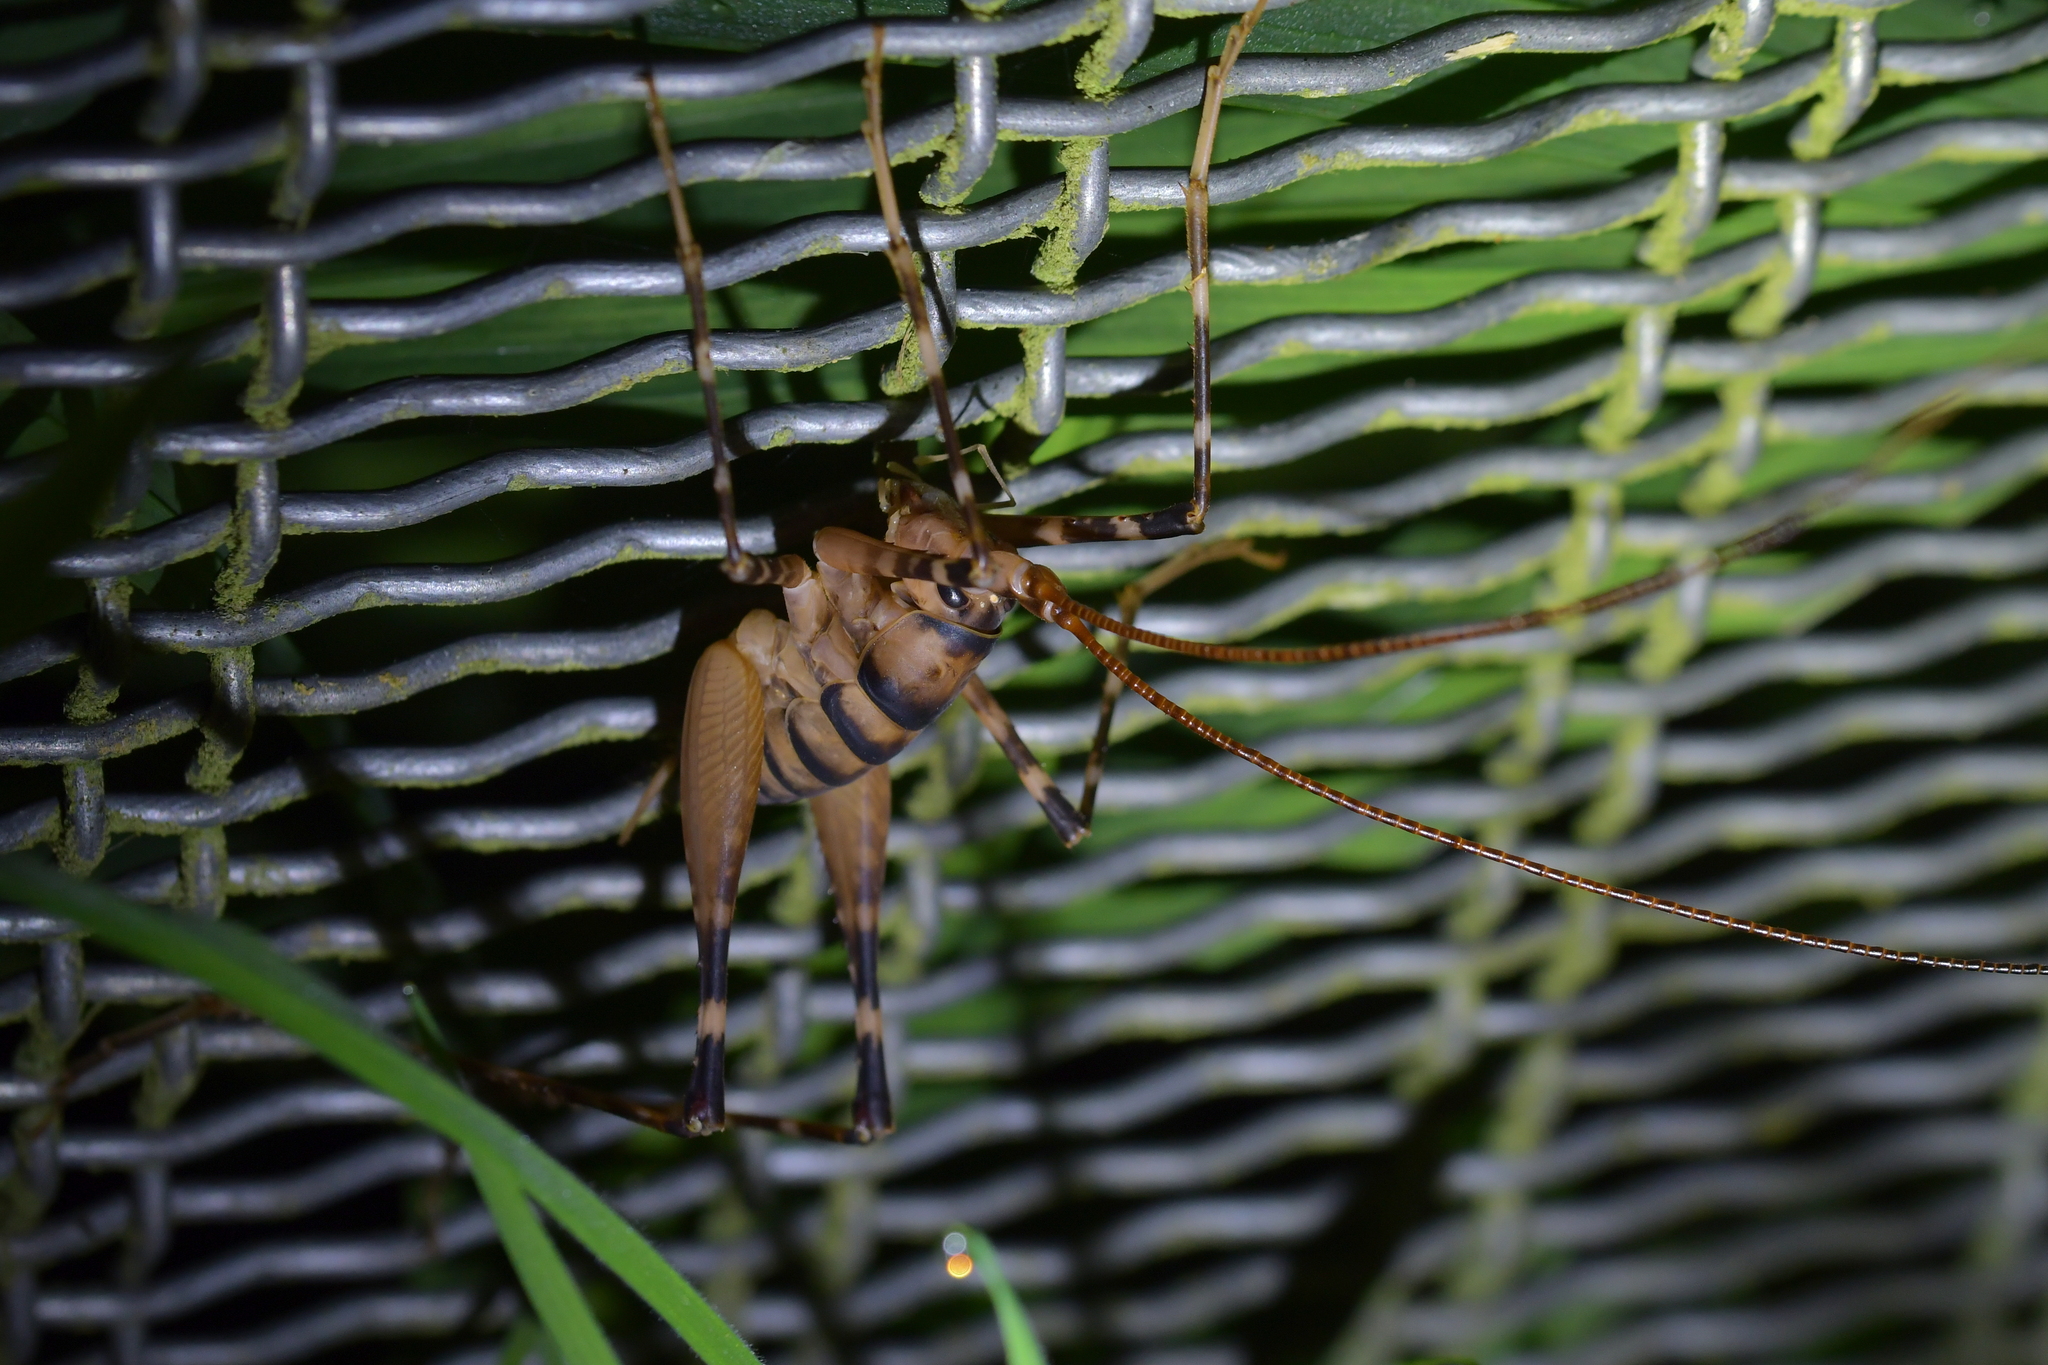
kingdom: Animalia
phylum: Arthropoda
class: Insecta
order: Orthoptera
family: Rhaphidophoridae
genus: Pachyrhamma
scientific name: Pachyrhamma edwardsii
